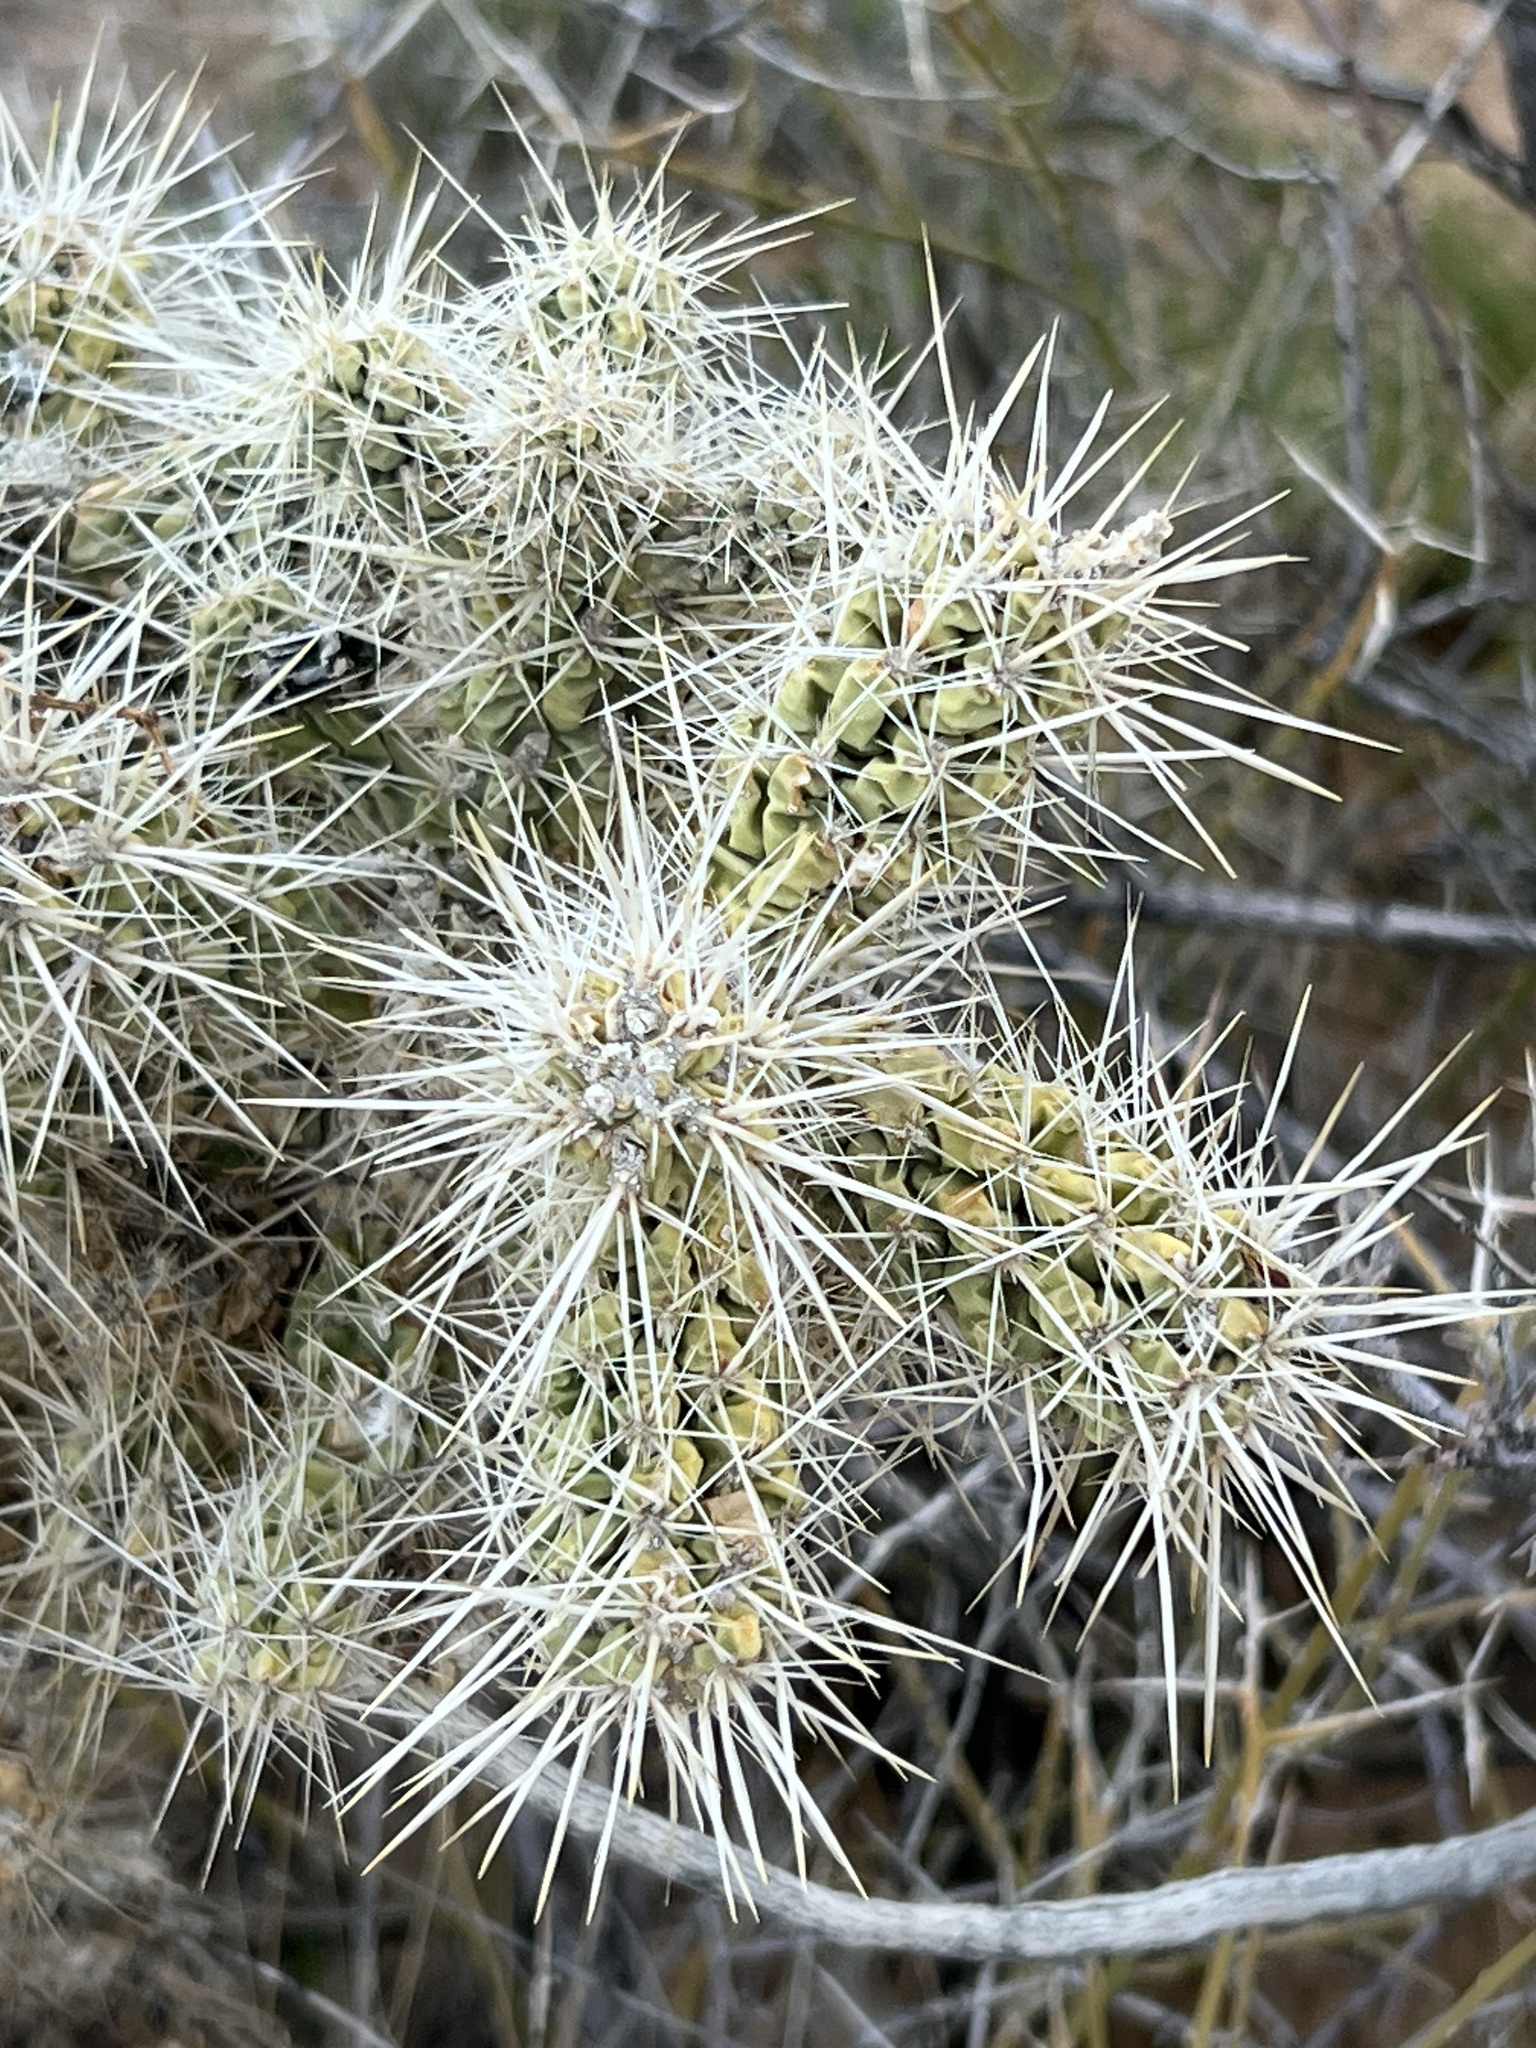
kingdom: Plantae
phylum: Tracheophyta
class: Magnoliopsida
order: Caryophyllales
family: Cactaceae
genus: Cylindropuntia
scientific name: Cylindropuntia echinocarpa
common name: Ground cholla
